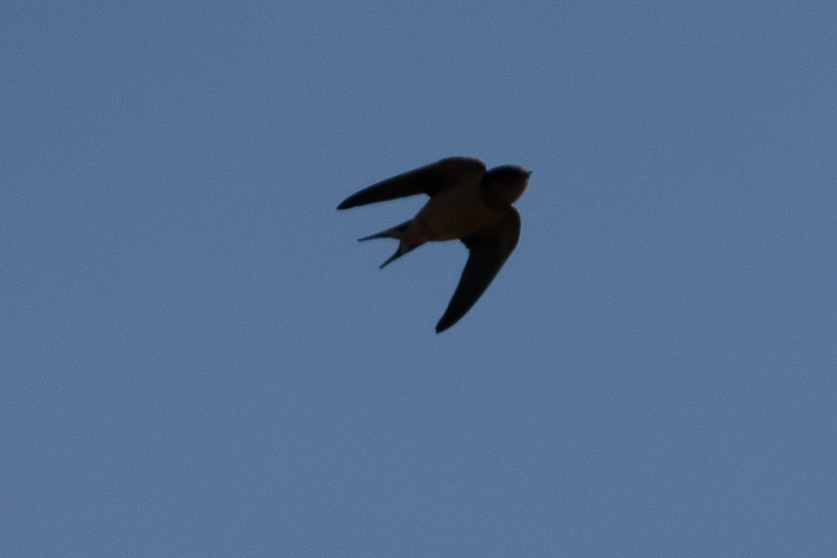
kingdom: Animalia
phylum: Chordata
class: Aves
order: Passeriformes
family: Hirundinidae
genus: Hirundo
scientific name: Hirundo rustica
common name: Barn swallow
